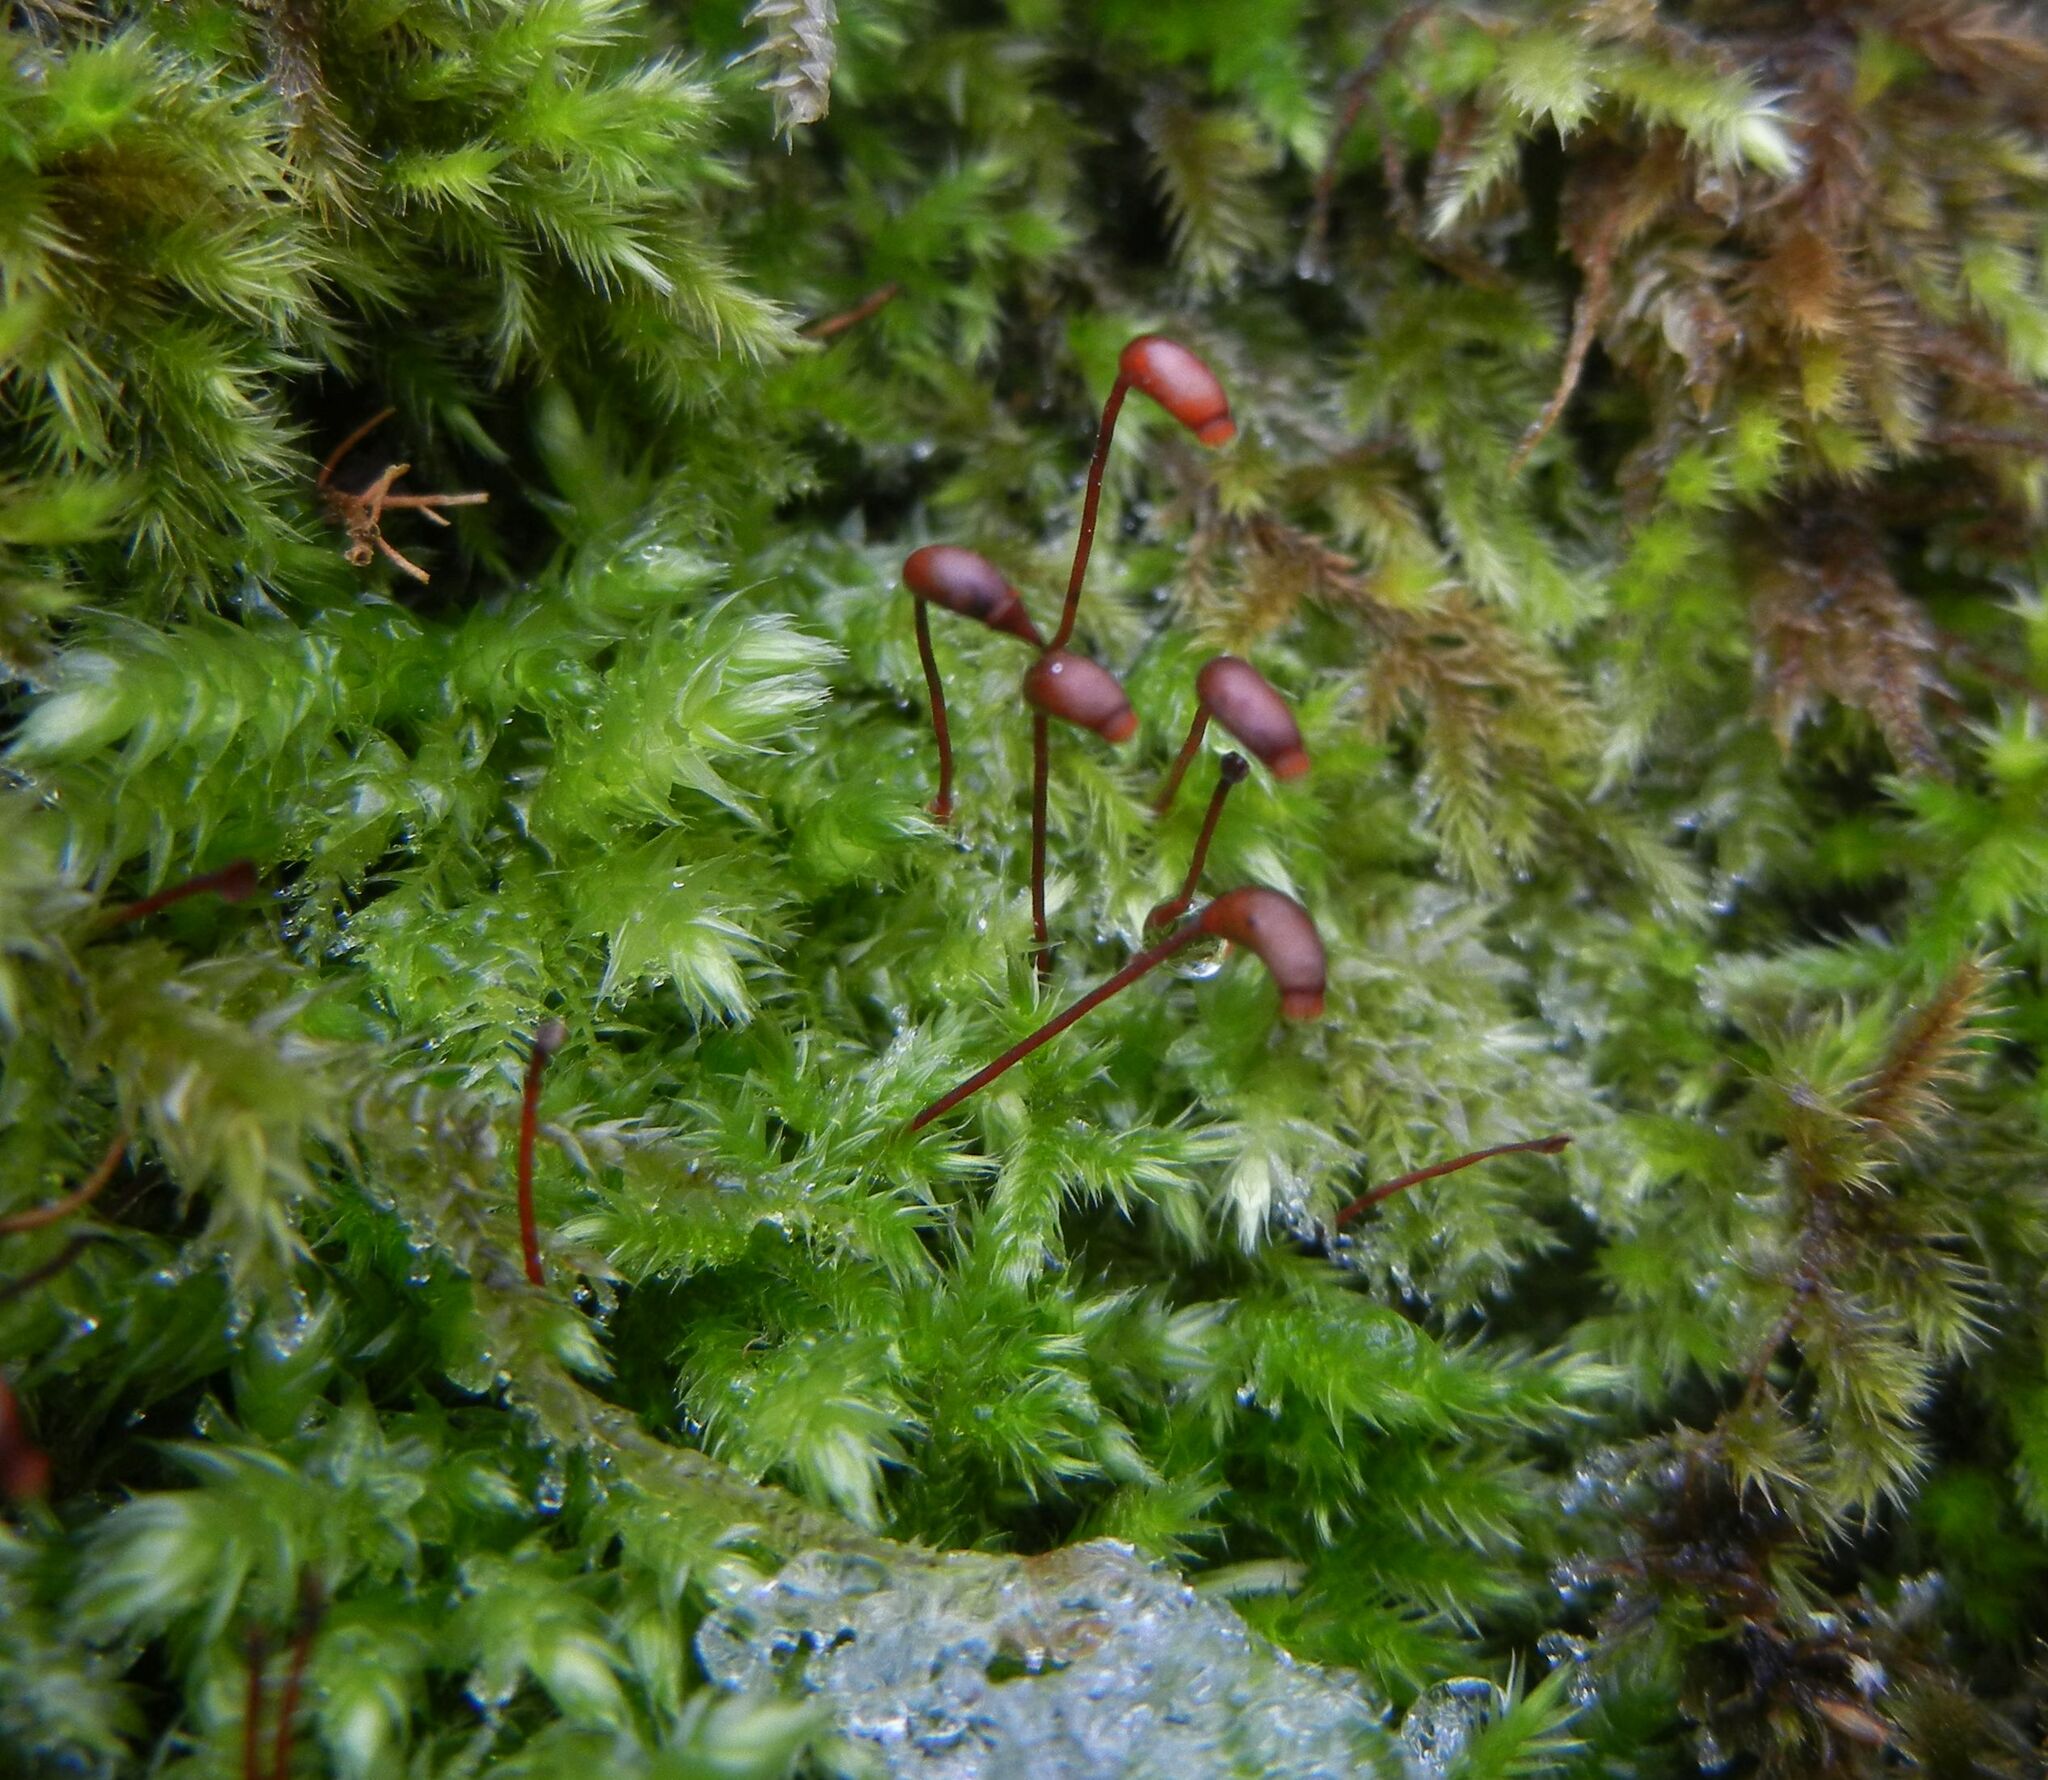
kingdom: Plantae
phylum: Bryophyta
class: Bryopsida
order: Hypnales
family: Brachytheciaceae
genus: Brachythecium
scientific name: Brachythecium rutabulum
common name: Rough-stalked feather-moss
